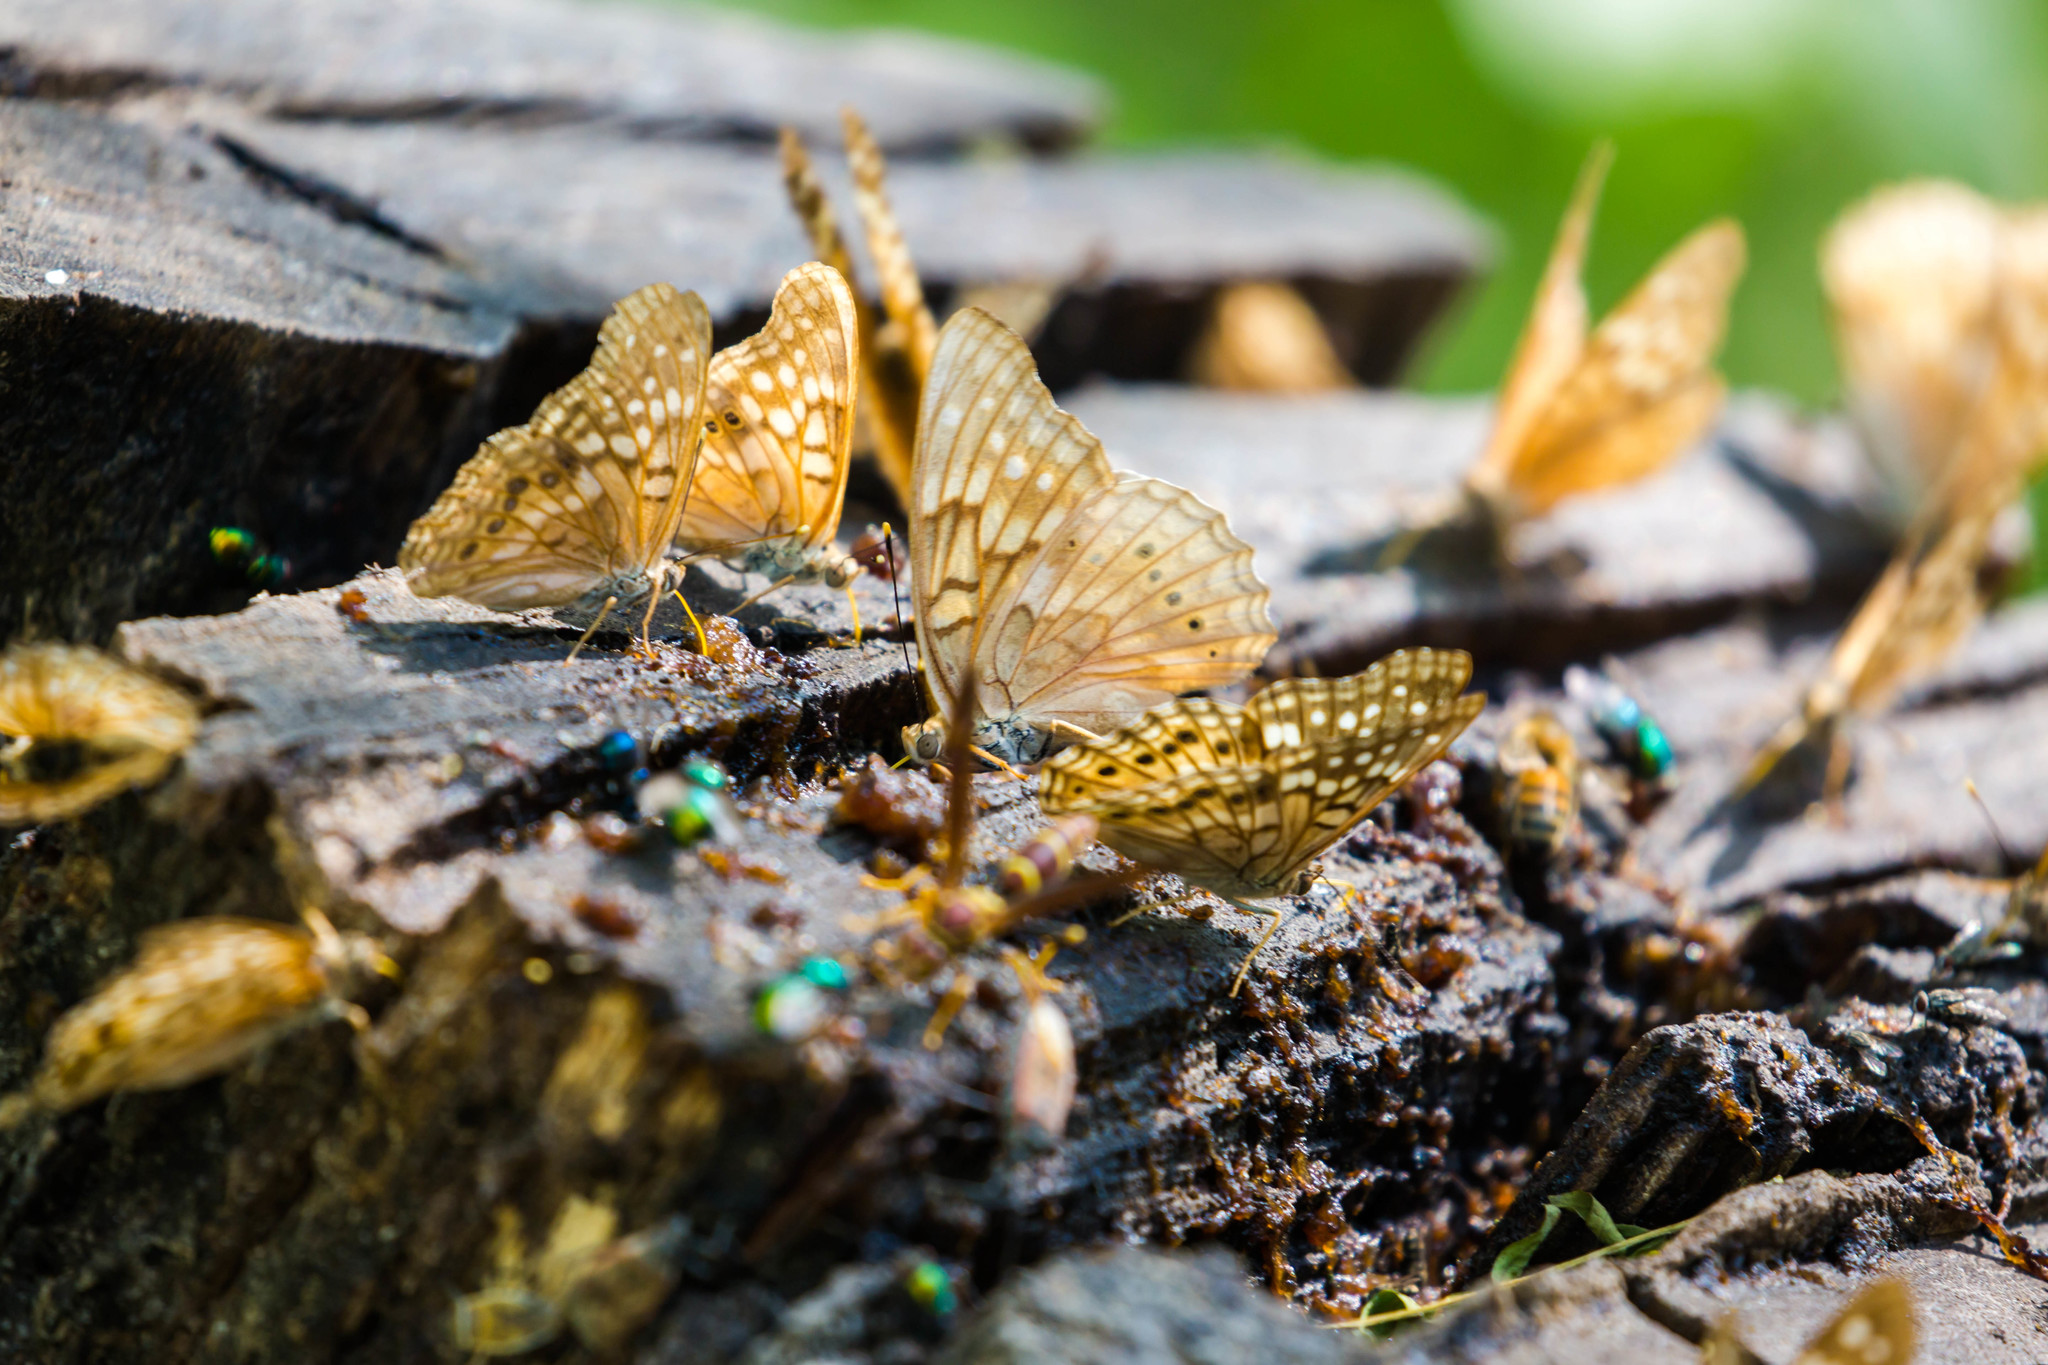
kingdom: Animalia
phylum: Arthropoda
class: Insecta
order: Lepidoptera
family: Nymphalidae
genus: Asterocampa
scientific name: Asterocampa clyton
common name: Tawny emperor
